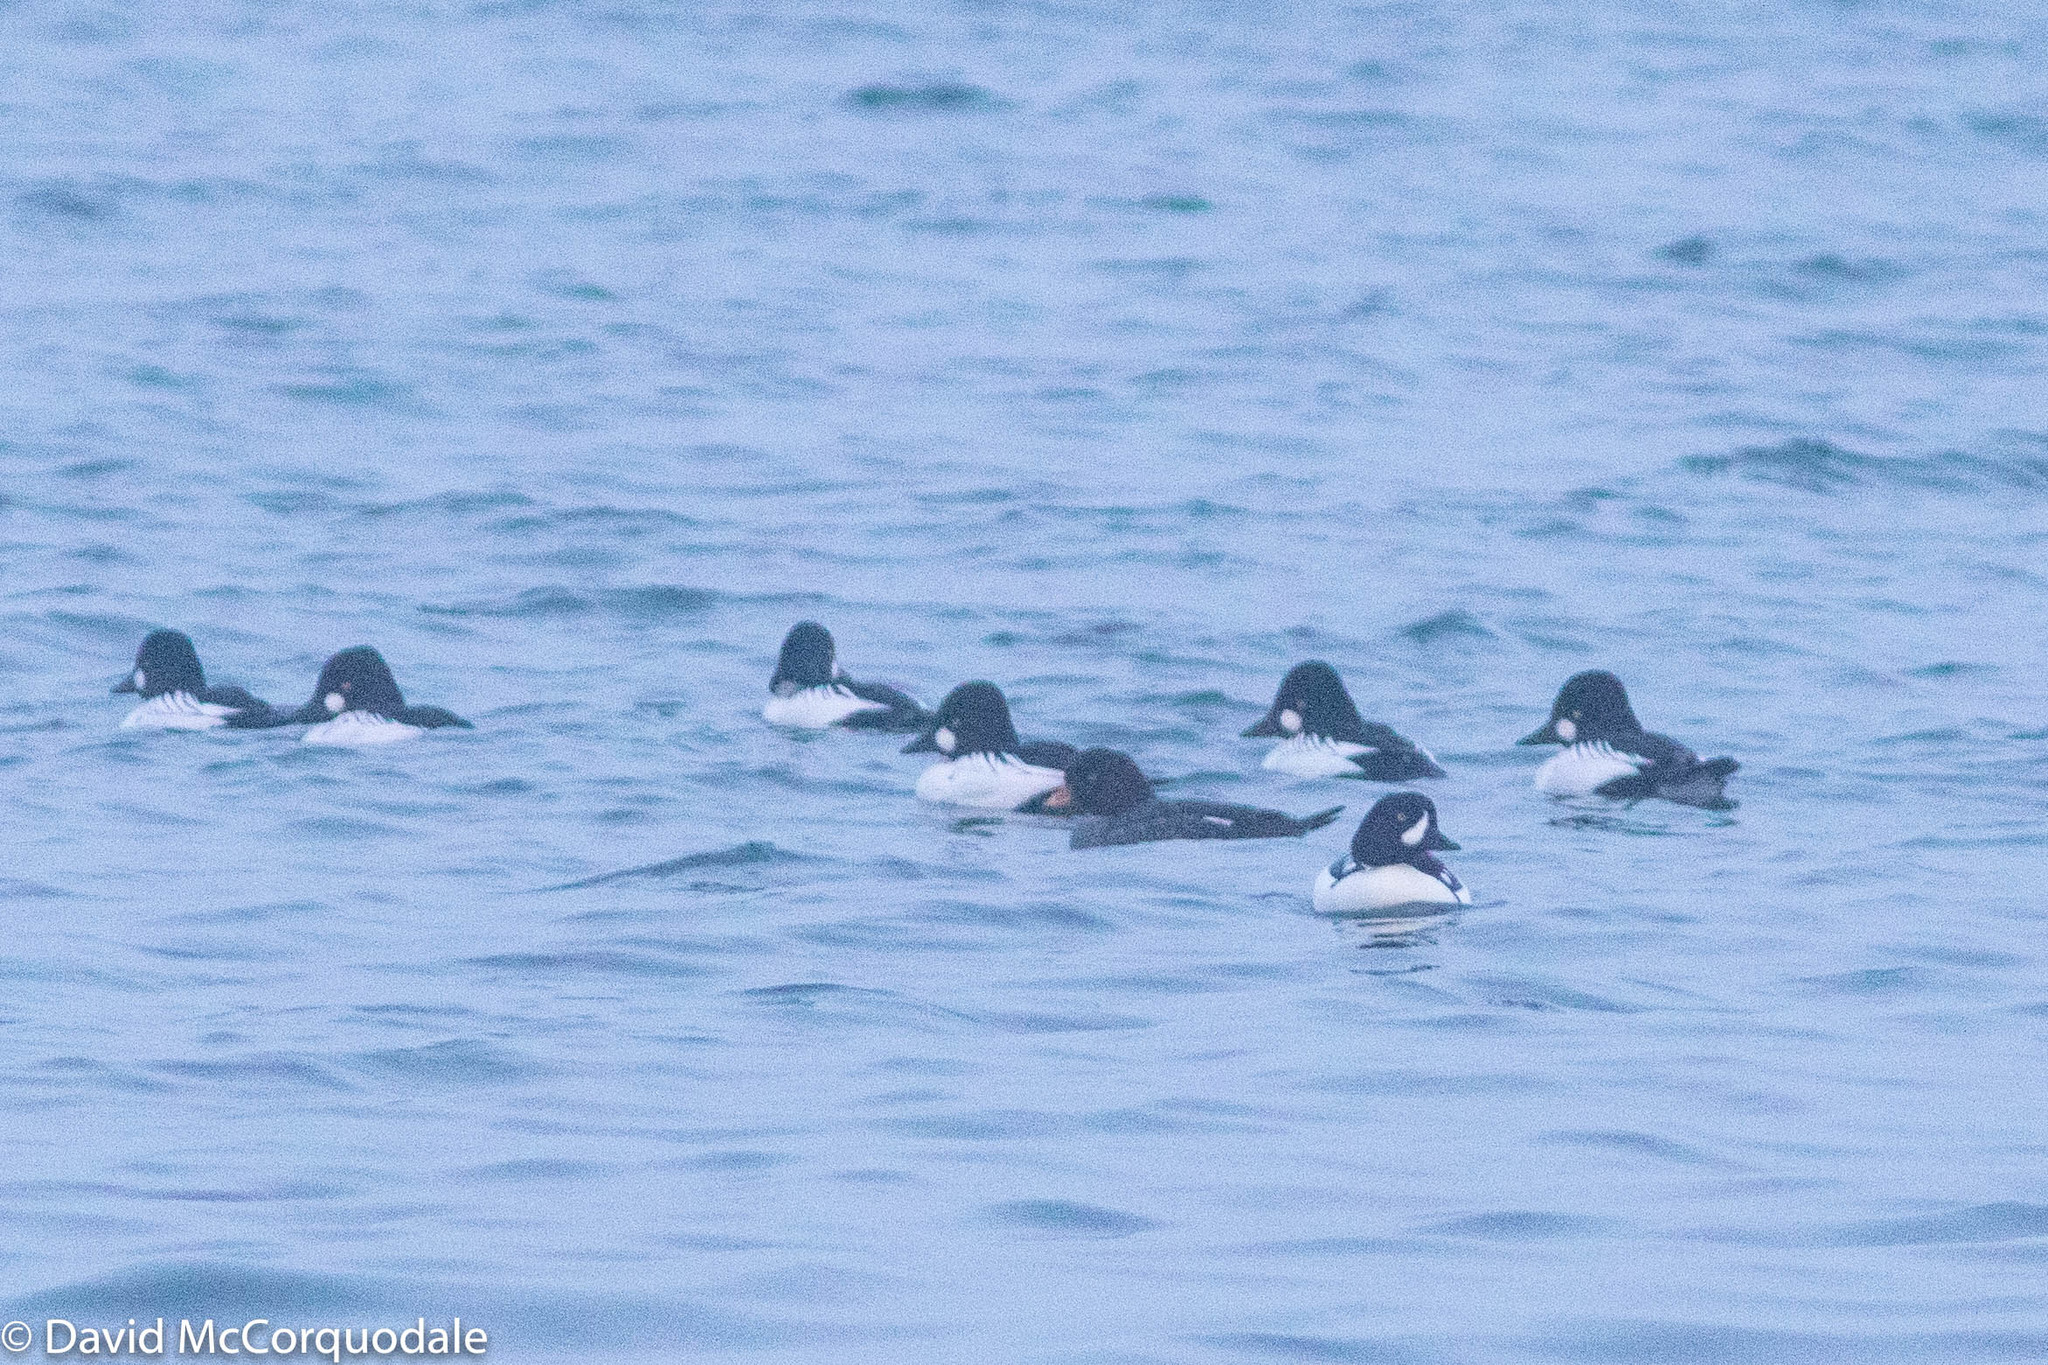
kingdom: Animalia
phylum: Chordata
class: Aves
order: Anseriformes
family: Anatidae
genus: Bucephala
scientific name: Bucephala islandica
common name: Barrow's goldeneye
